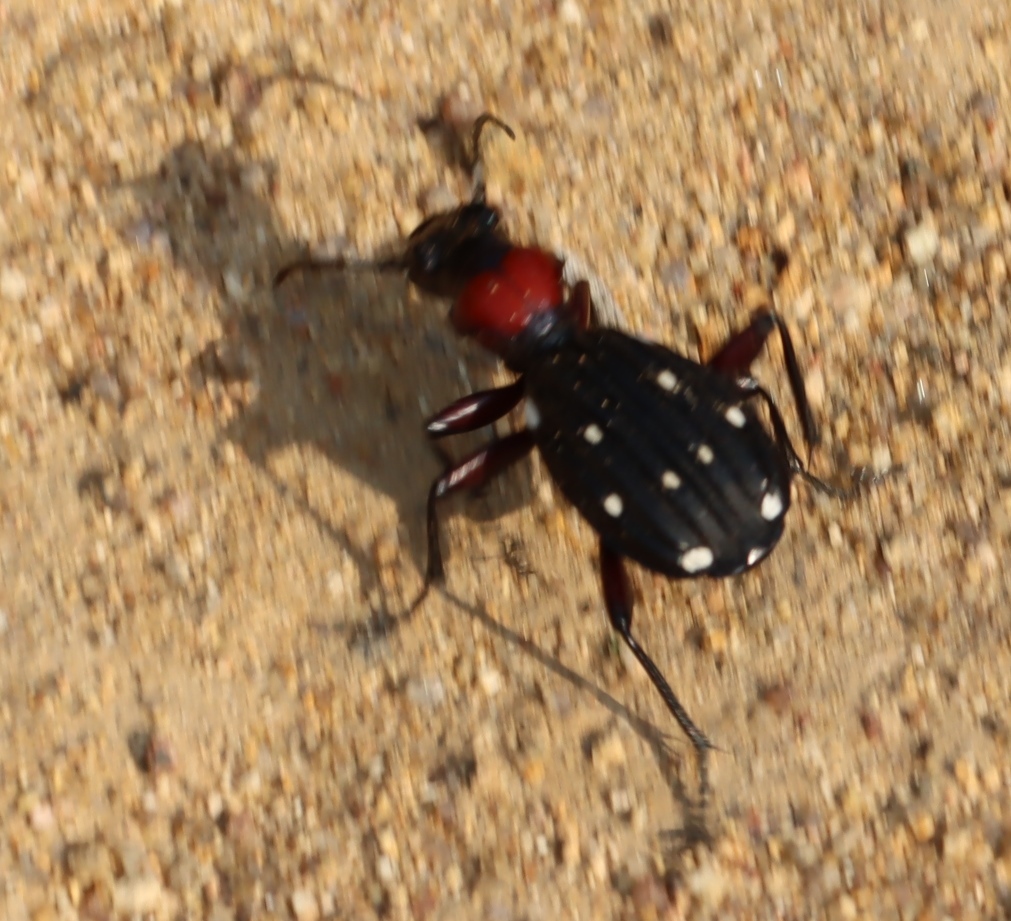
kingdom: Animalia
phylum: Arthropoda
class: Insecta
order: Coleoptera
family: Carabidae
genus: Anthia
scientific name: Anthia decemguttata
